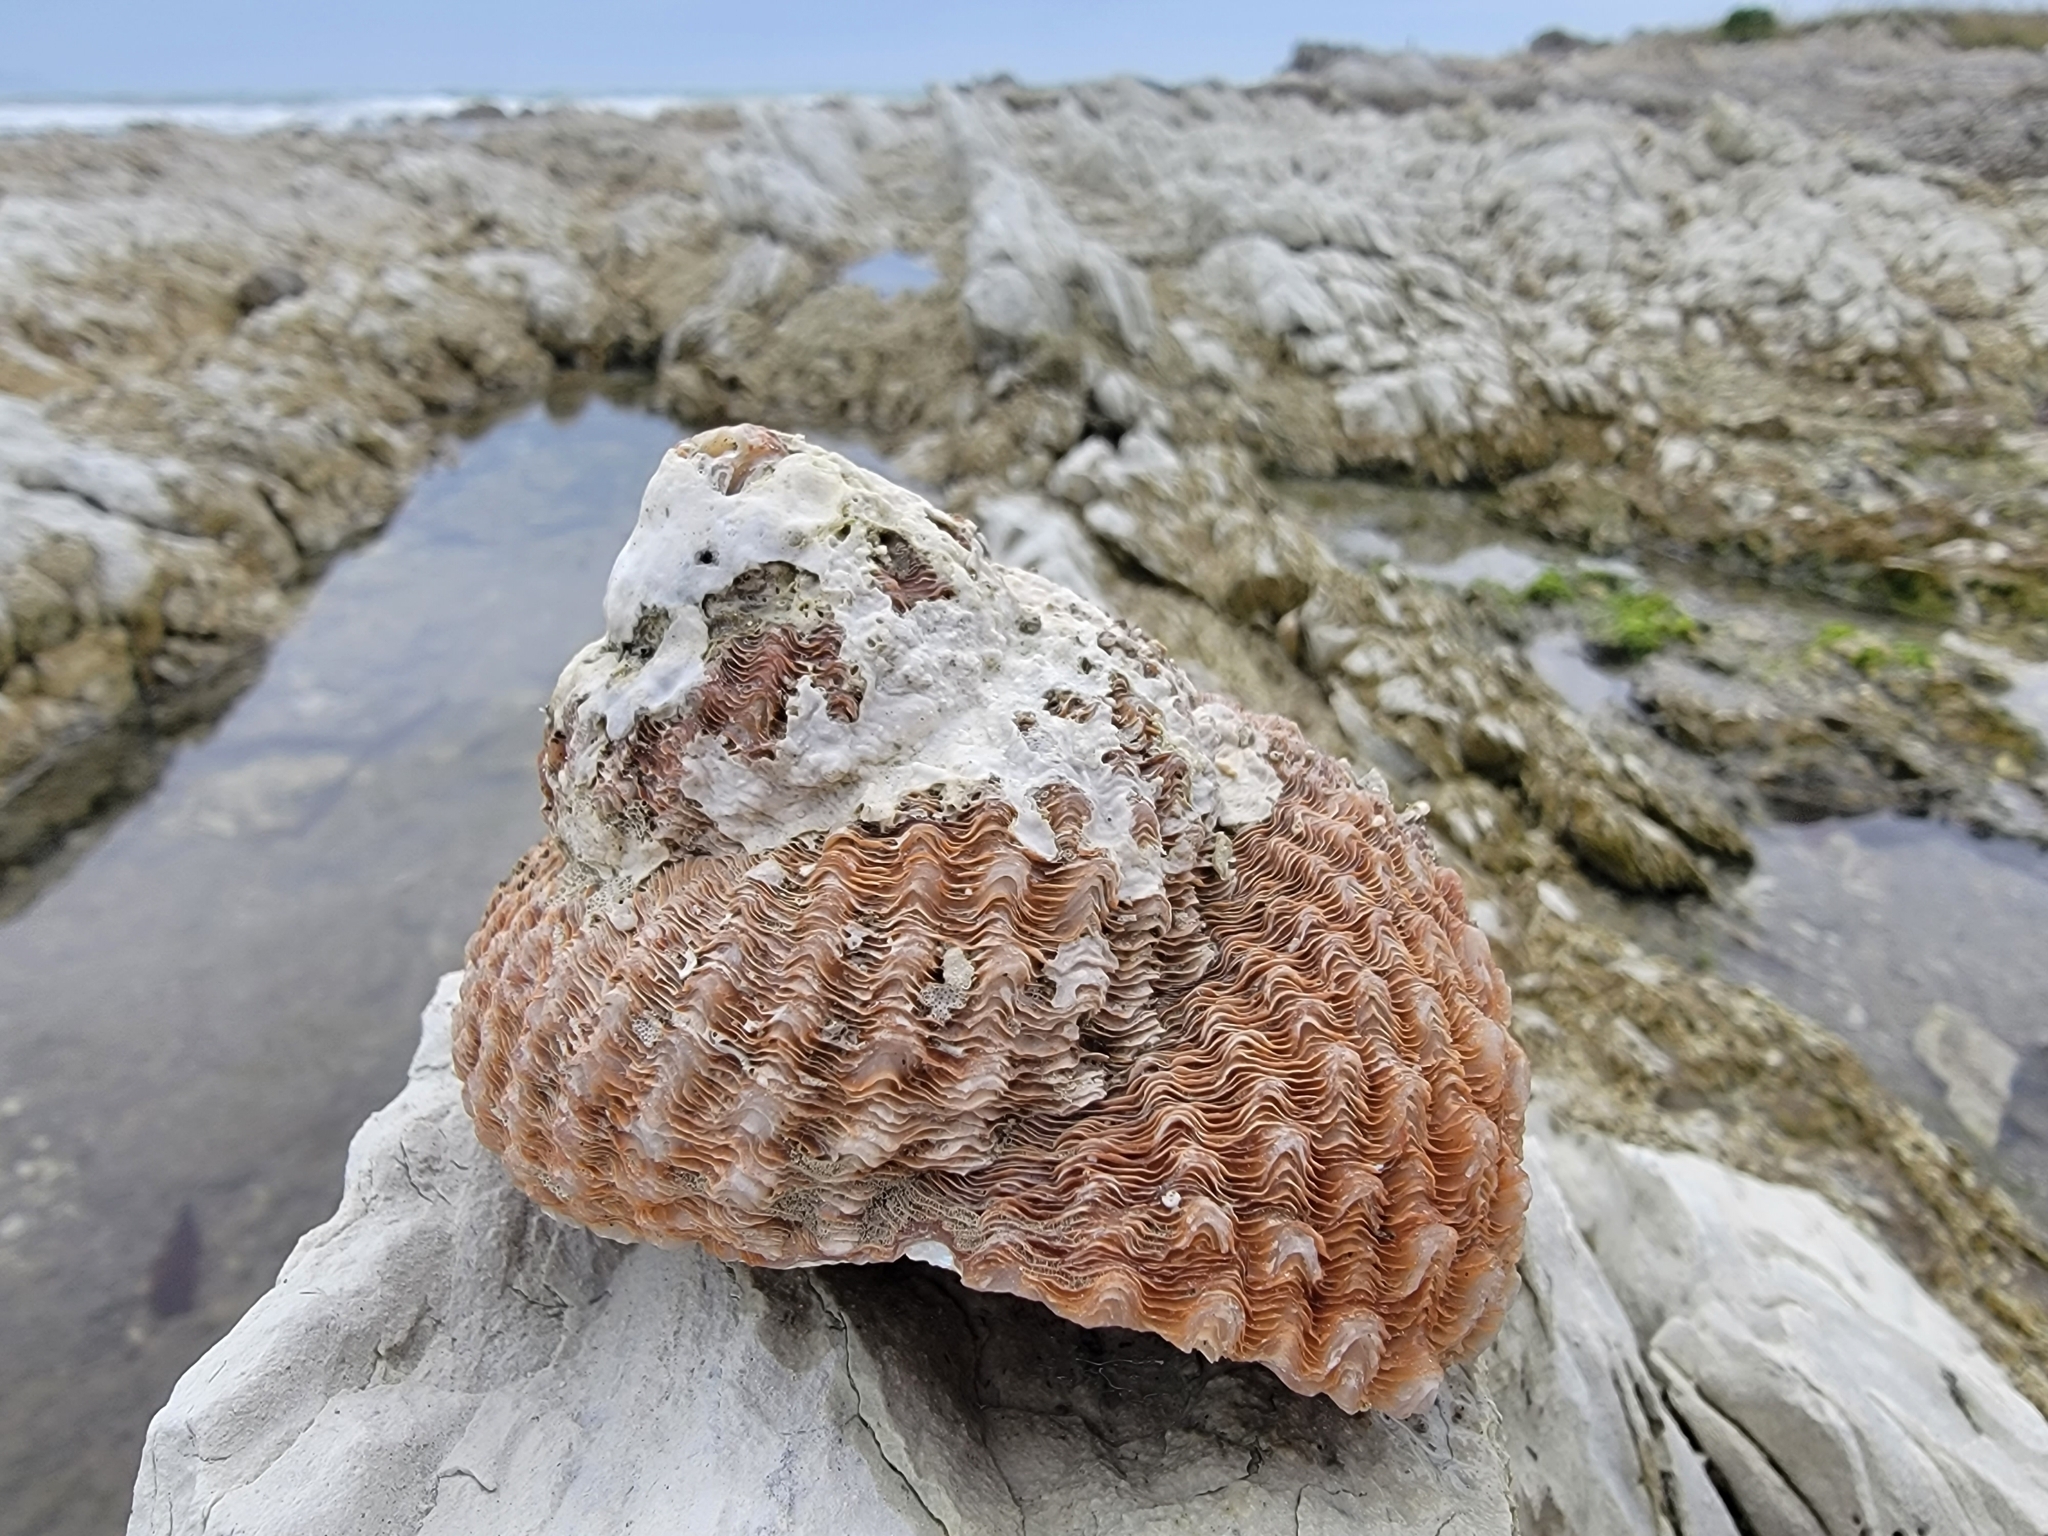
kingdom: Animalia
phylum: Mollusca
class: Gastropoda
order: Trochida
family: Turbinidae
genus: Cookia
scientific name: Cookia sulcata
